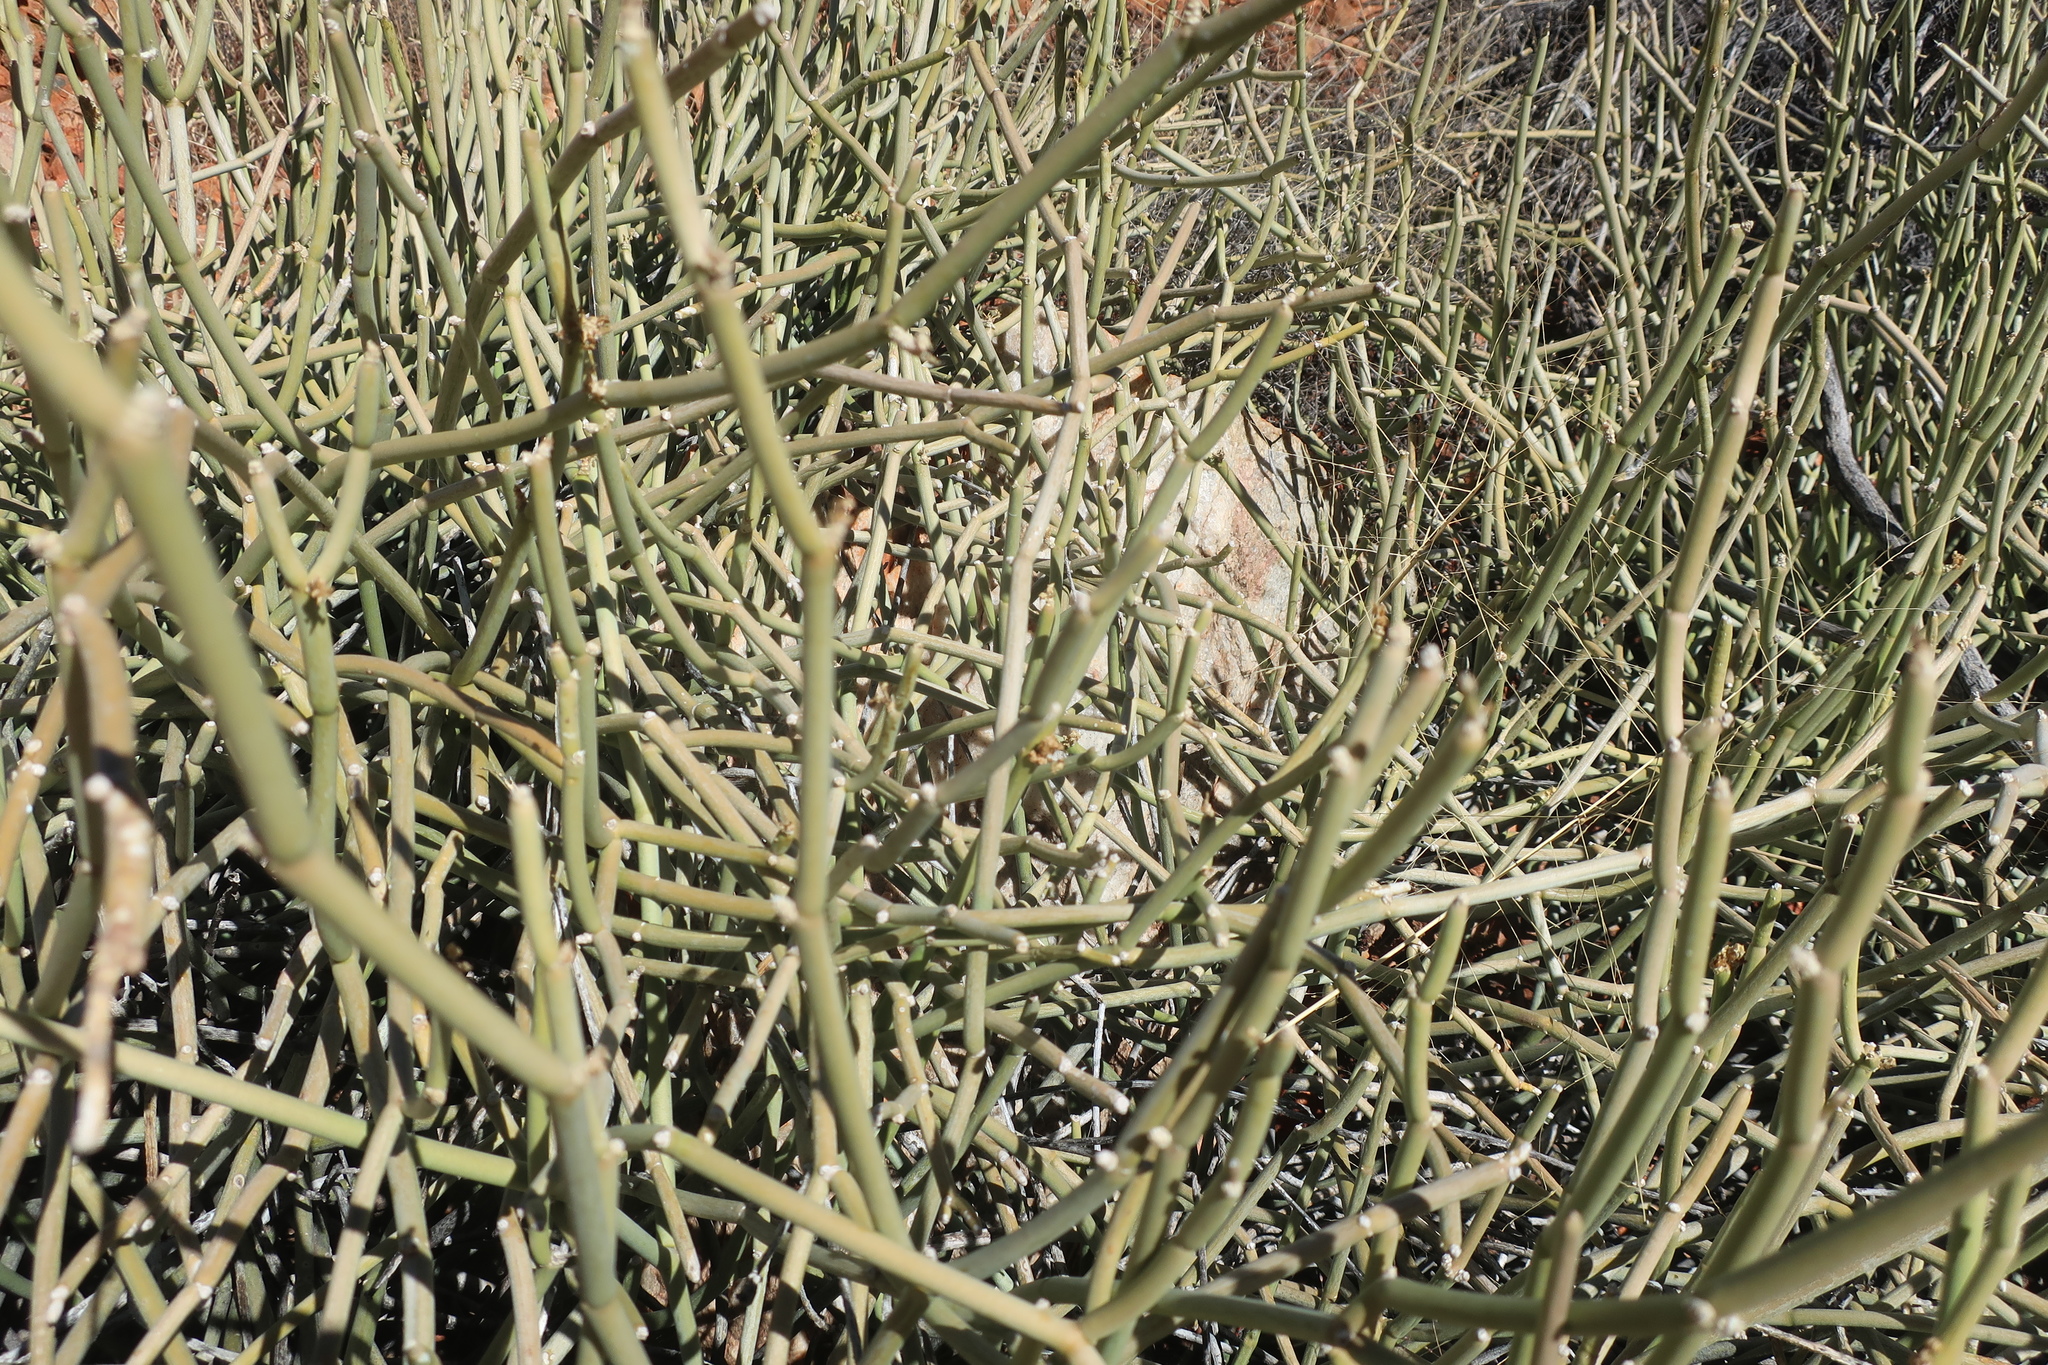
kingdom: Plantae
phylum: Tracheophyta
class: Magnoliopsida
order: Gentianales
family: Apocynaceae
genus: Cynanchum
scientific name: Cynanchum viminale
